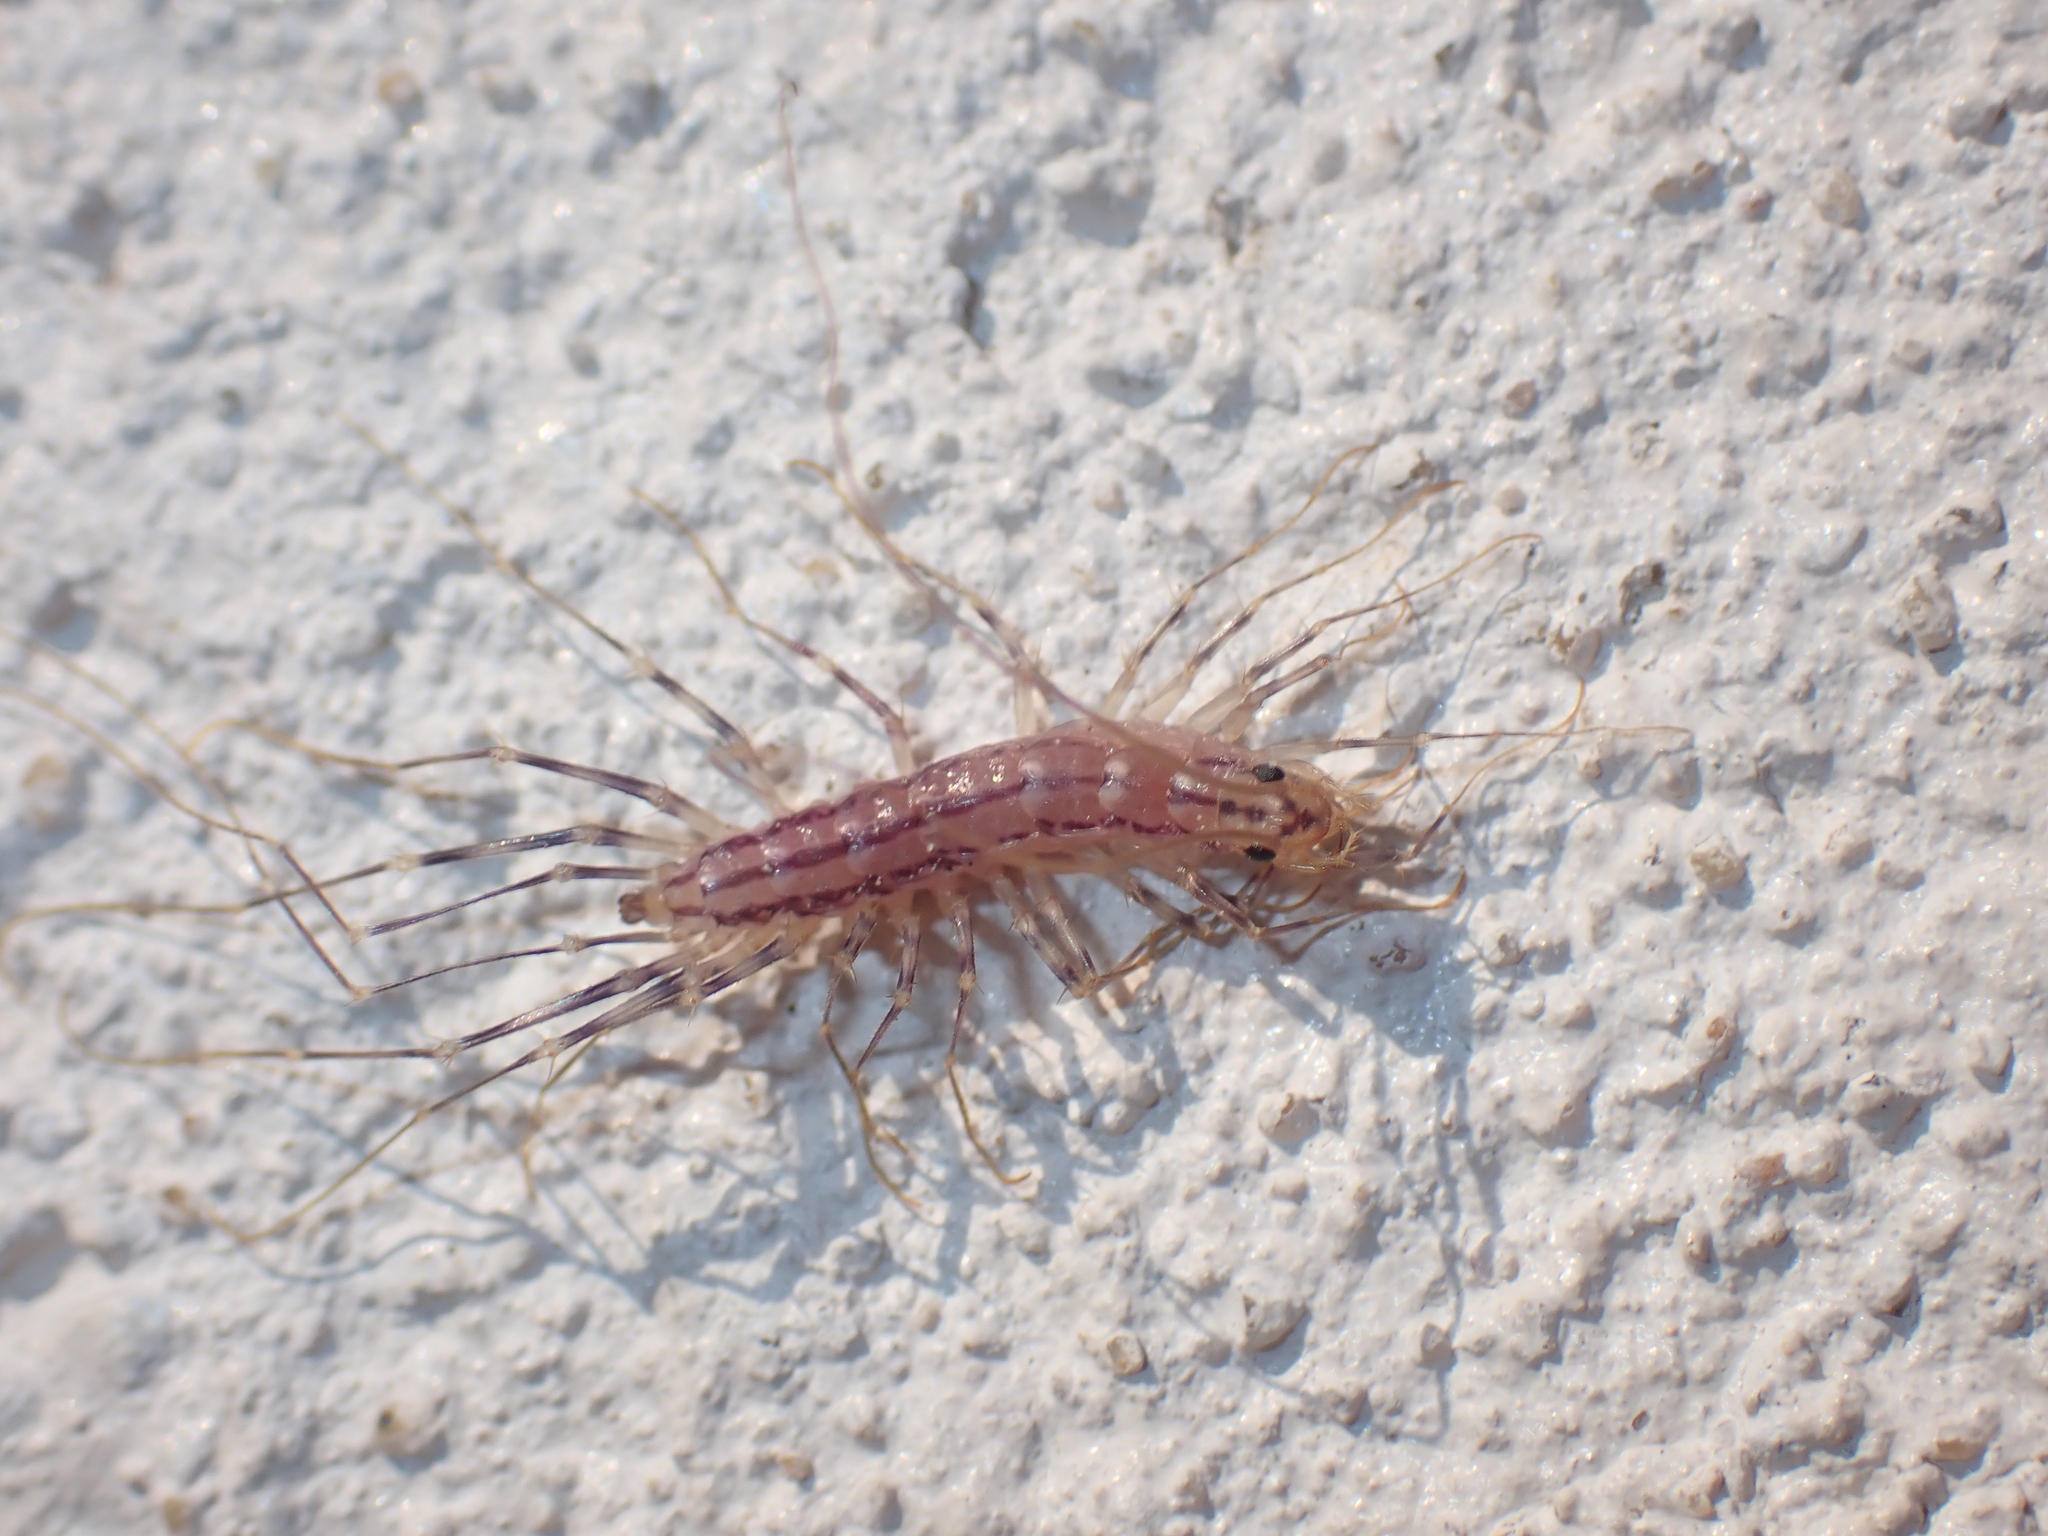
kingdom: Animalia
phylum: Arthropoda
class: Chilopoda
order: Scutigeromorpha
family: Scutigeridae
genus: Scutigera
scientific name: Scutigera coleoptrata
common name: House centipede
